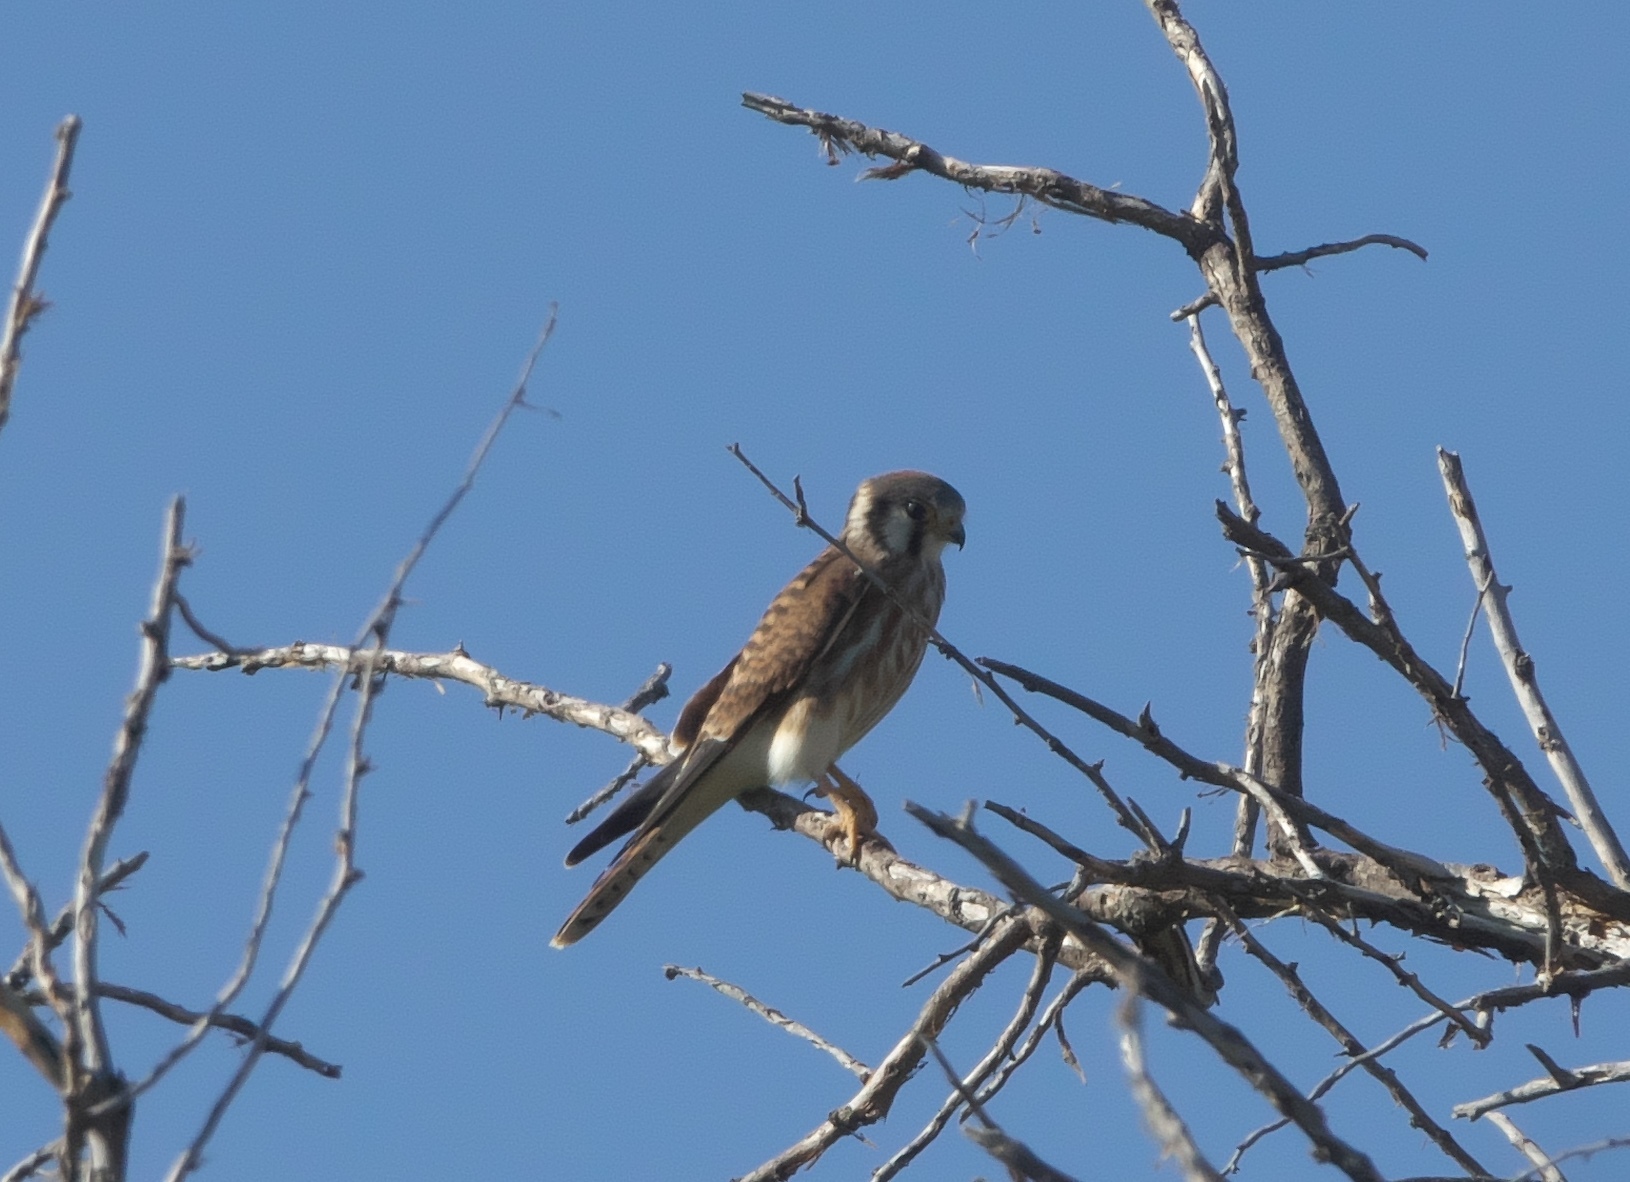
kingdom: Animalia
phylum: Chordata
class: Aves
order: Falconiformes
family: Falconidae
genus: Falco
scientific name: Falco sparverius
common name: American kestrel
